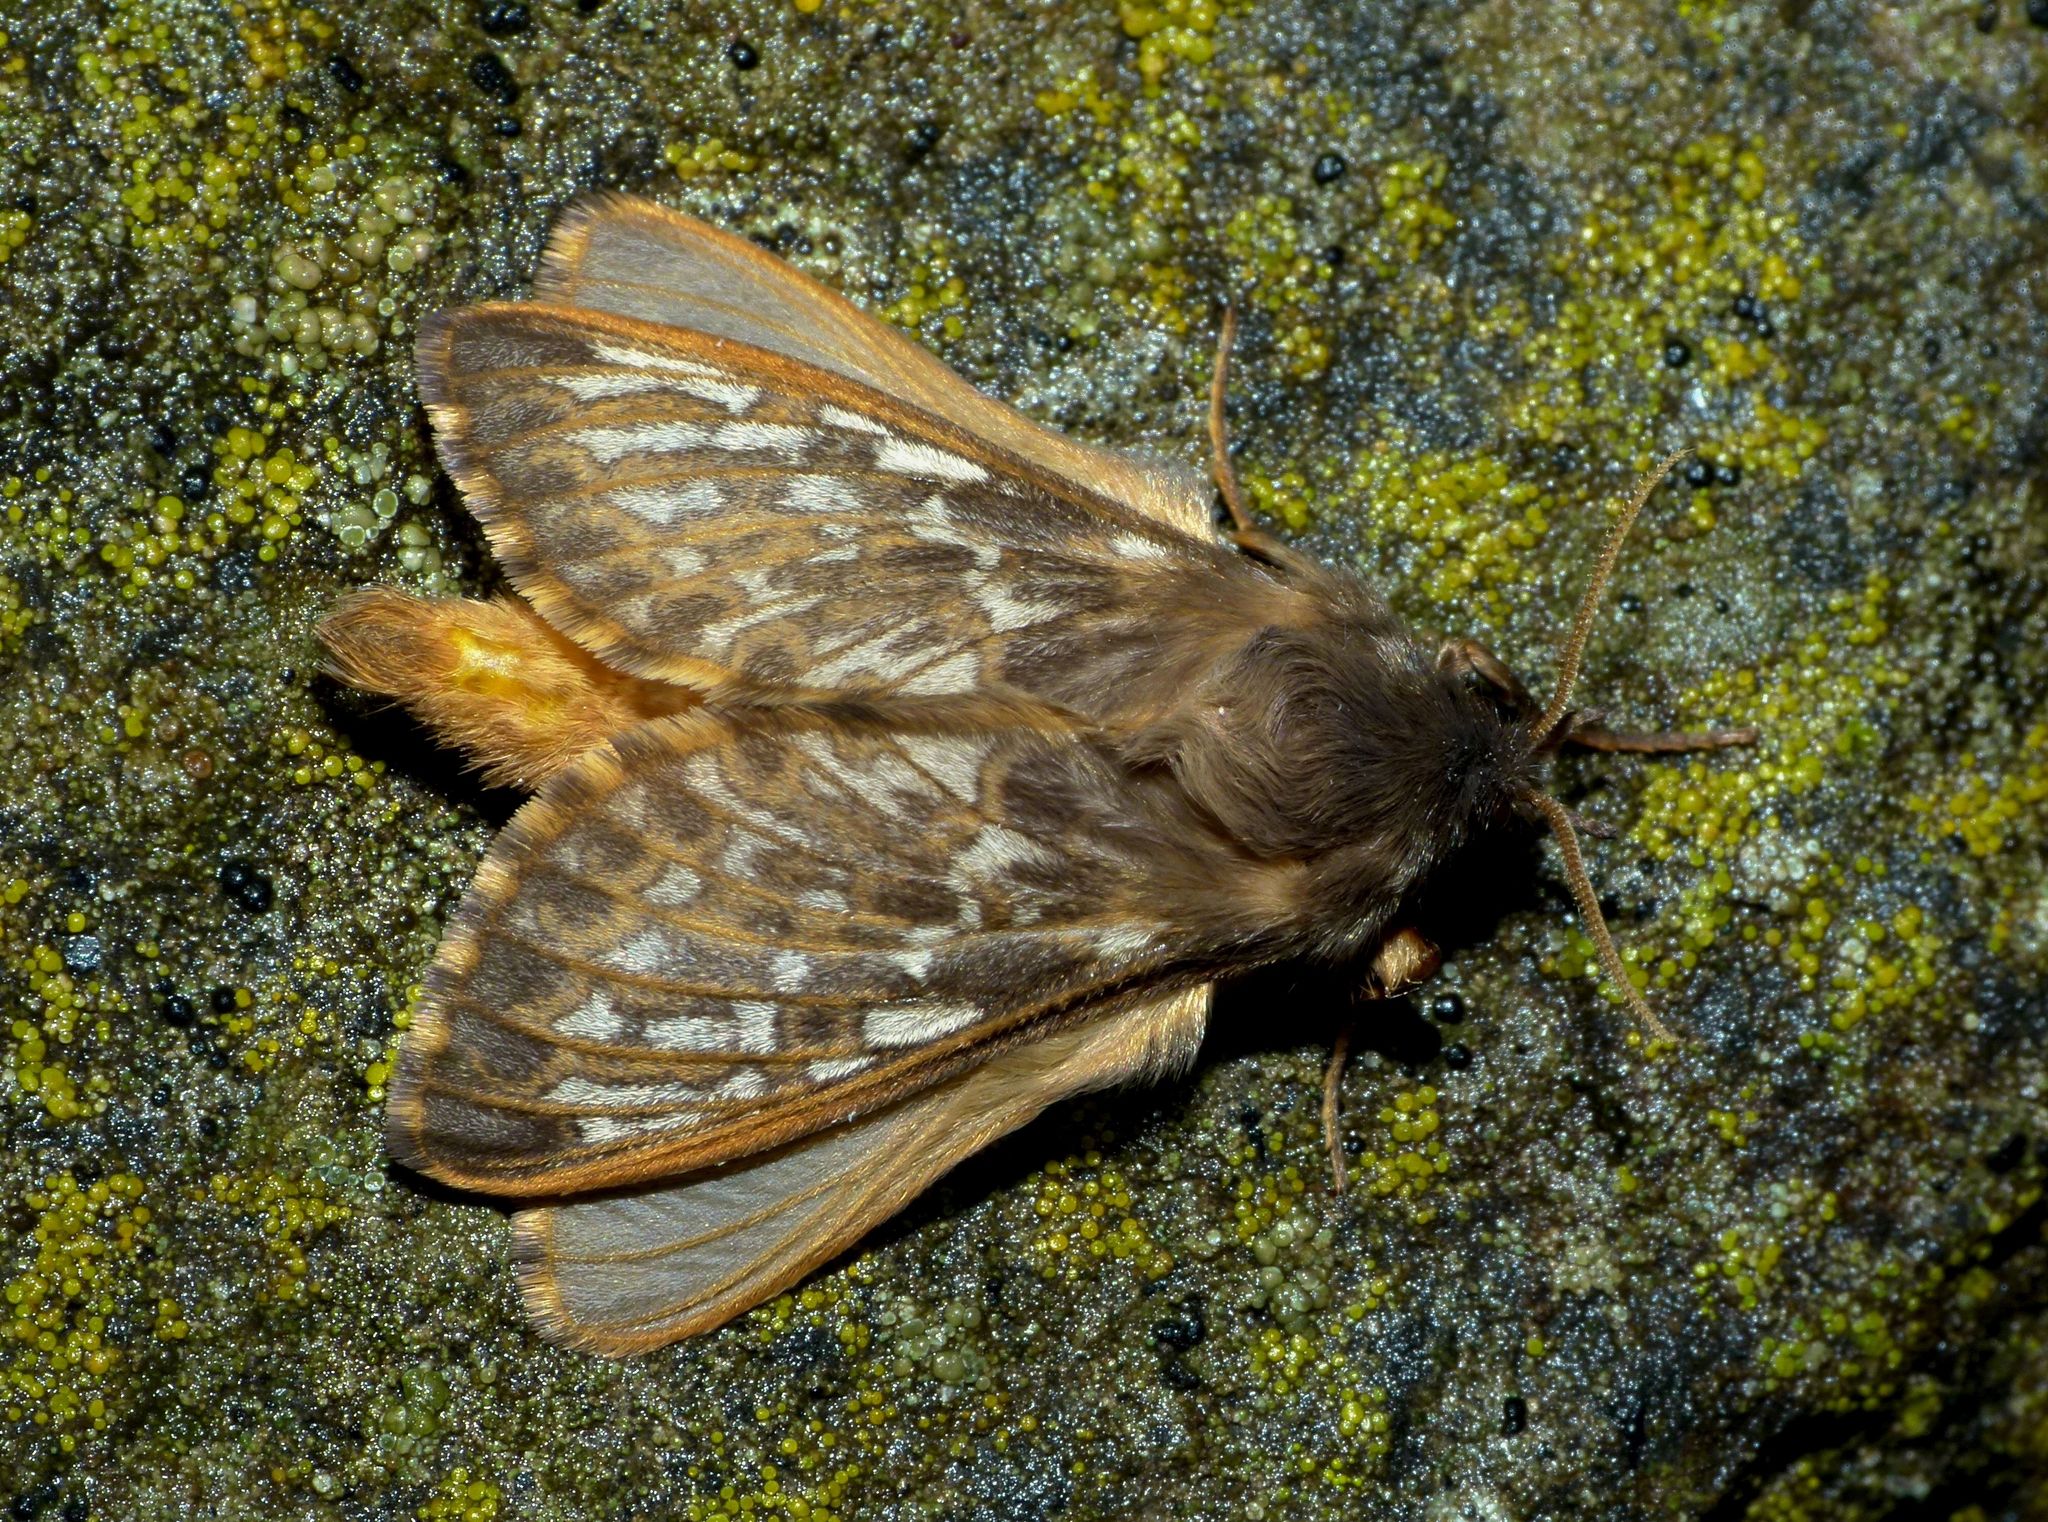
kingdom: Animalia
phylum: Arthropoda
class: Insecta
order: Lepidoptera
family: Hepialidae
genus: Cladoxycanus
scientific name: Cladoxycanus minos
